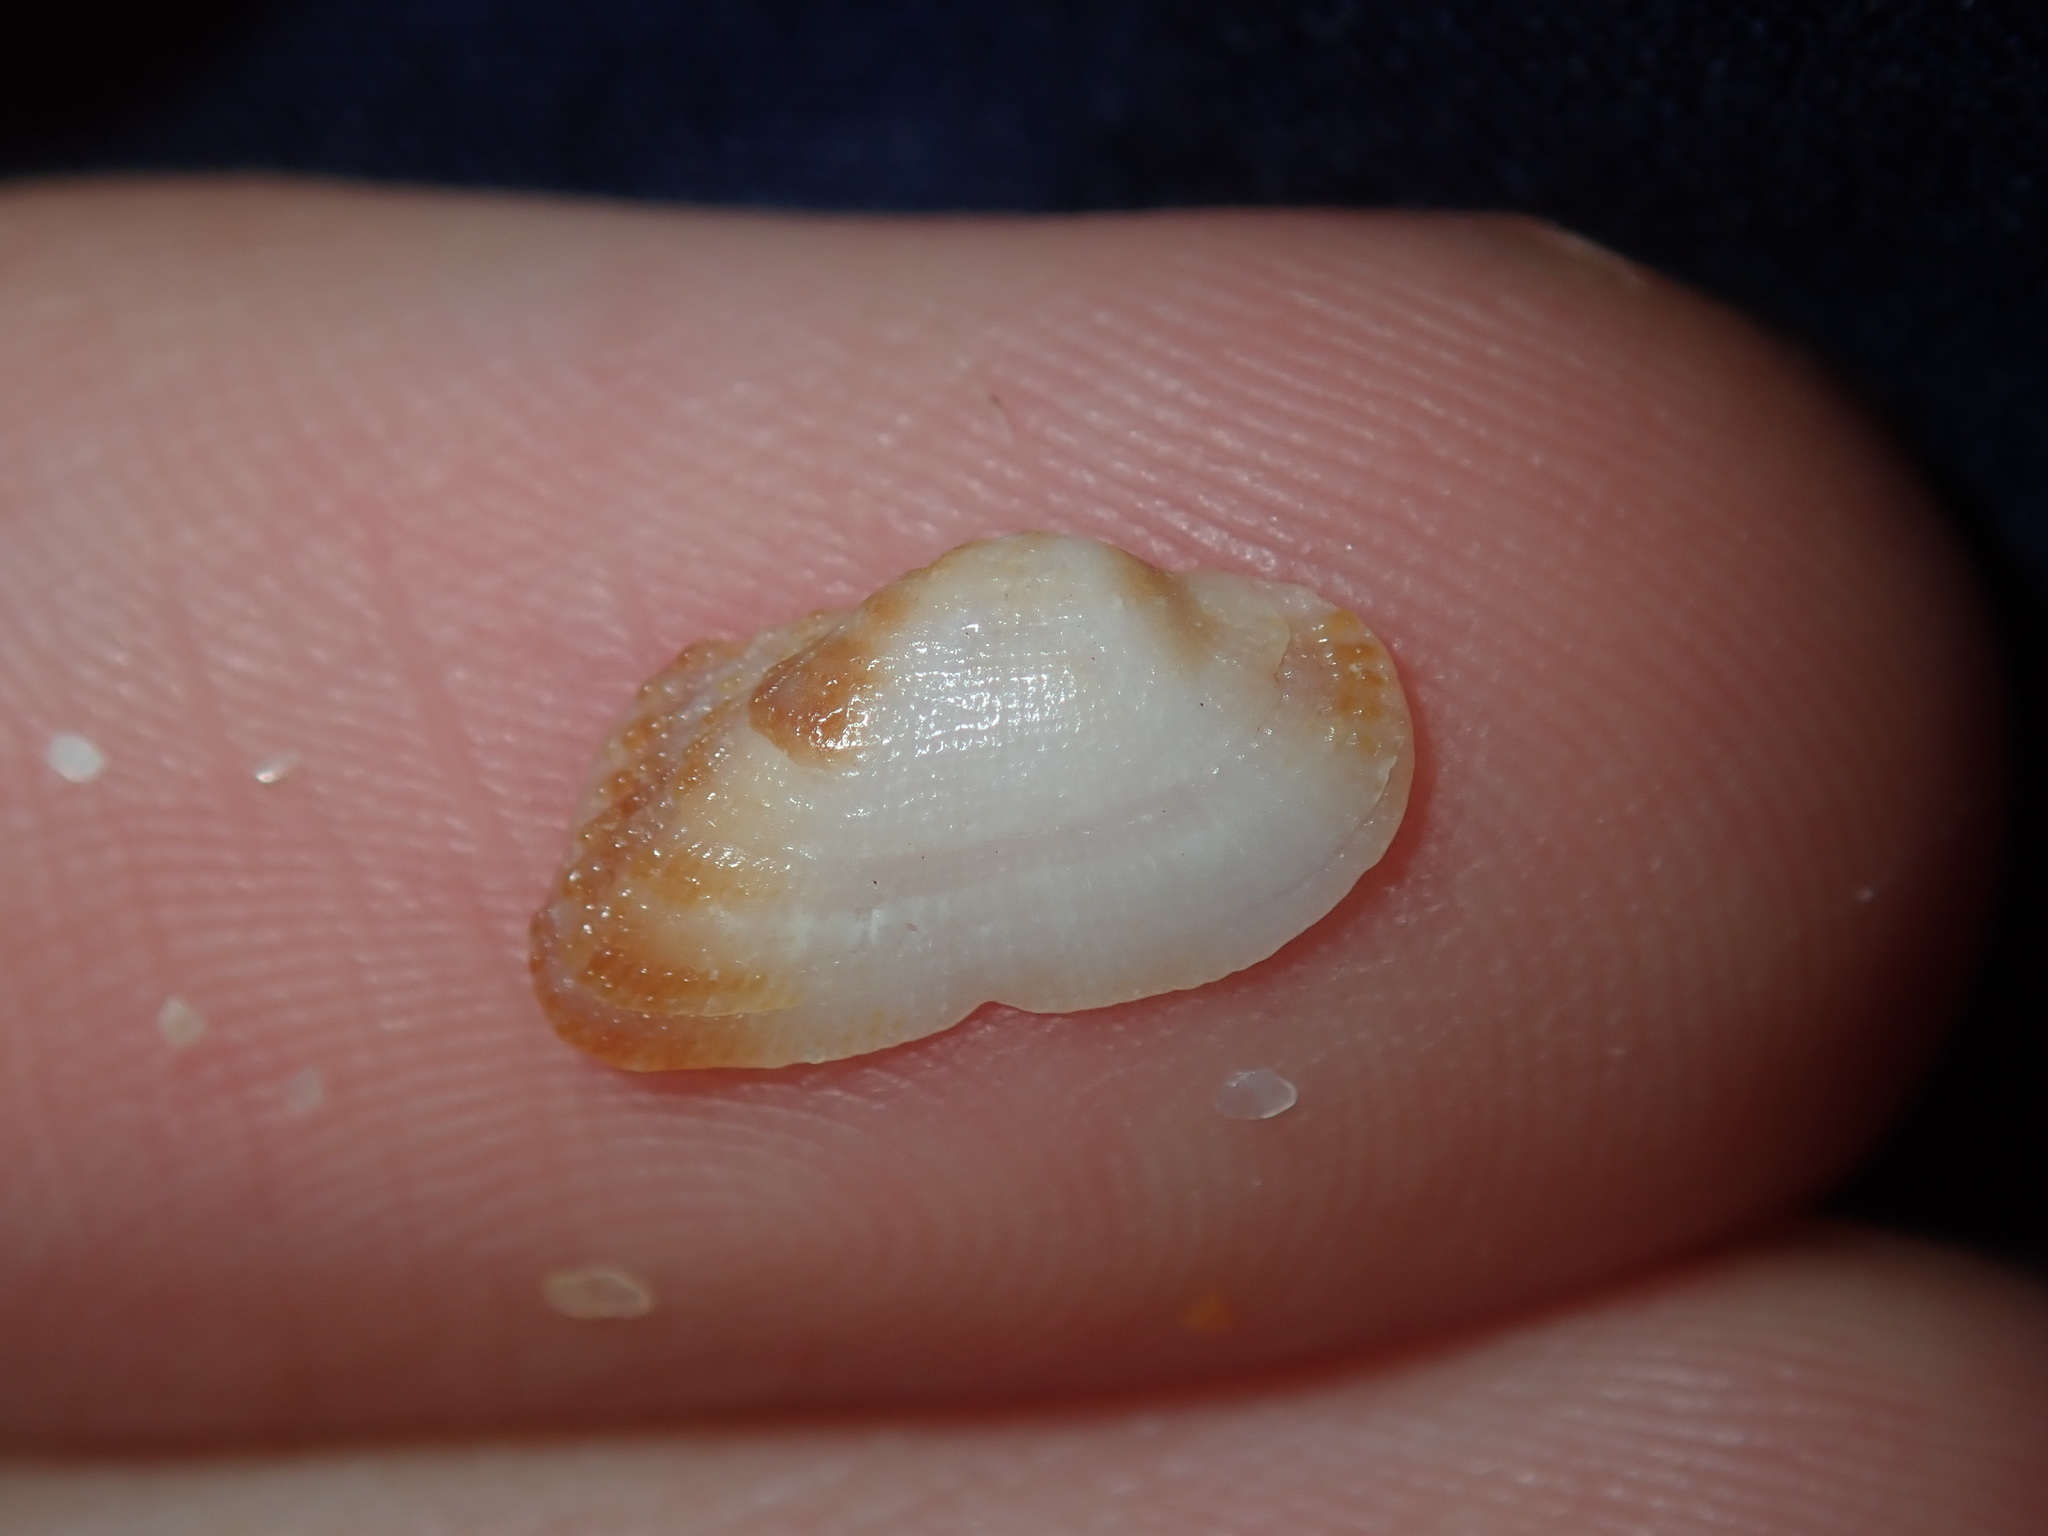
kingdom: Animalia
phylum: Mollusca
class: Bivalvia
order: Arcida
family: Arcidae
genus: Barbatia
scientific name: Barbatia pistachia
